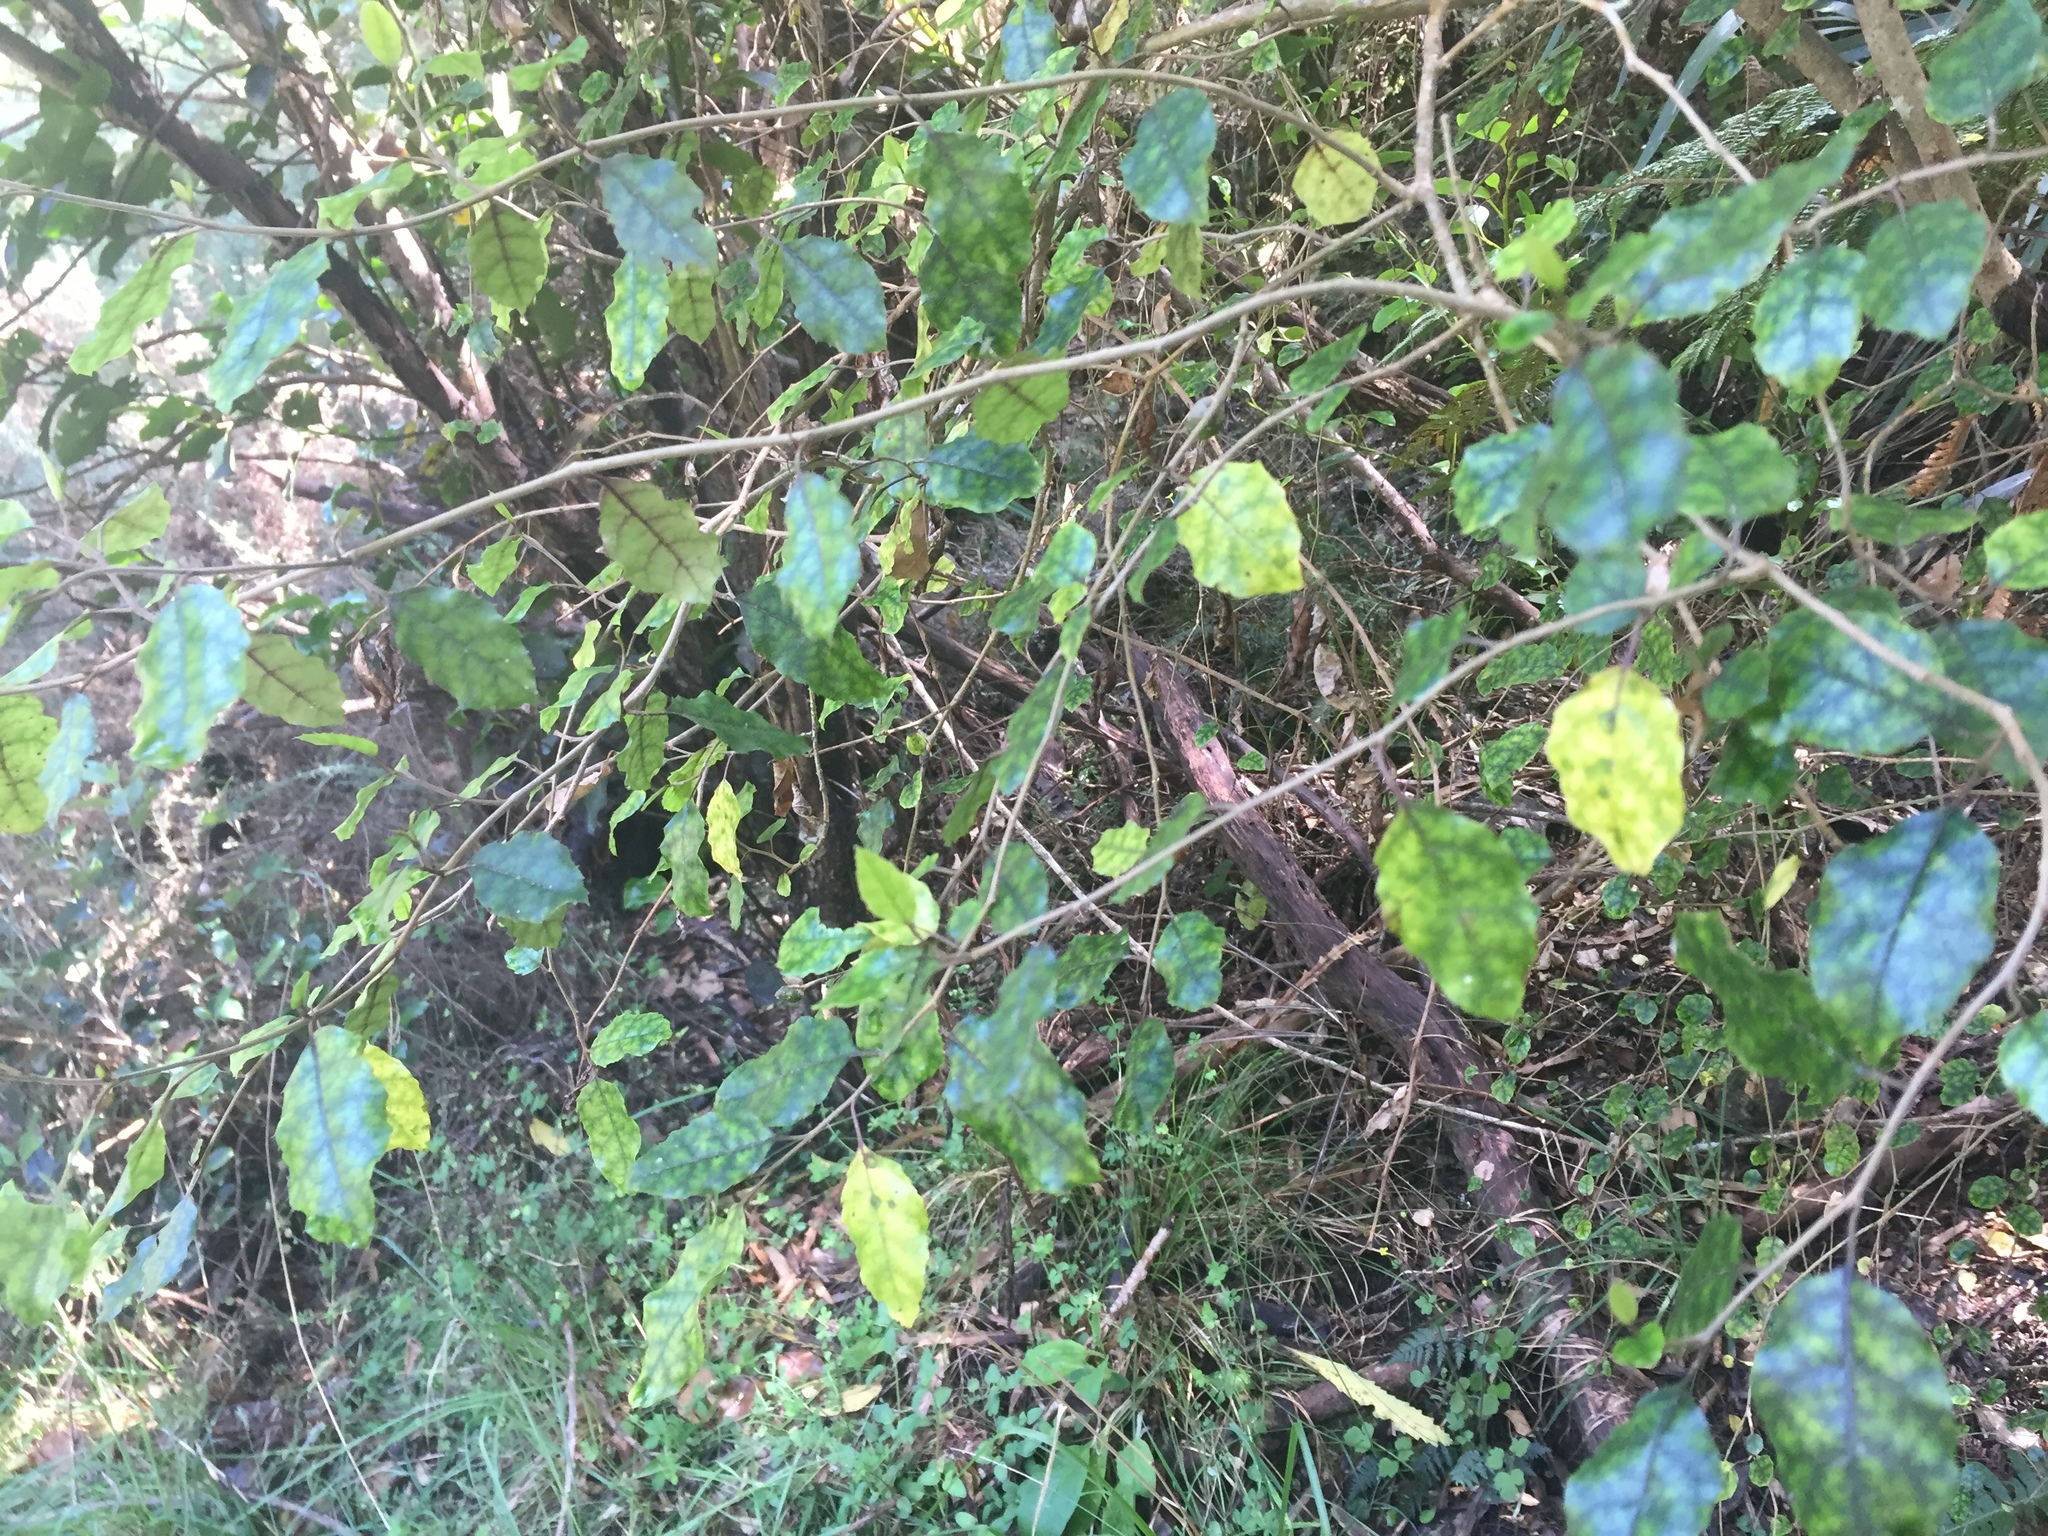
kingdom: Plantae
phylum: Tracheophyta
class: Magnoliopsida
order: Asterales
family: Rousseaceae
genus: Carpodetus
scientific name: Carpodetus serratus
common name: White mapau
